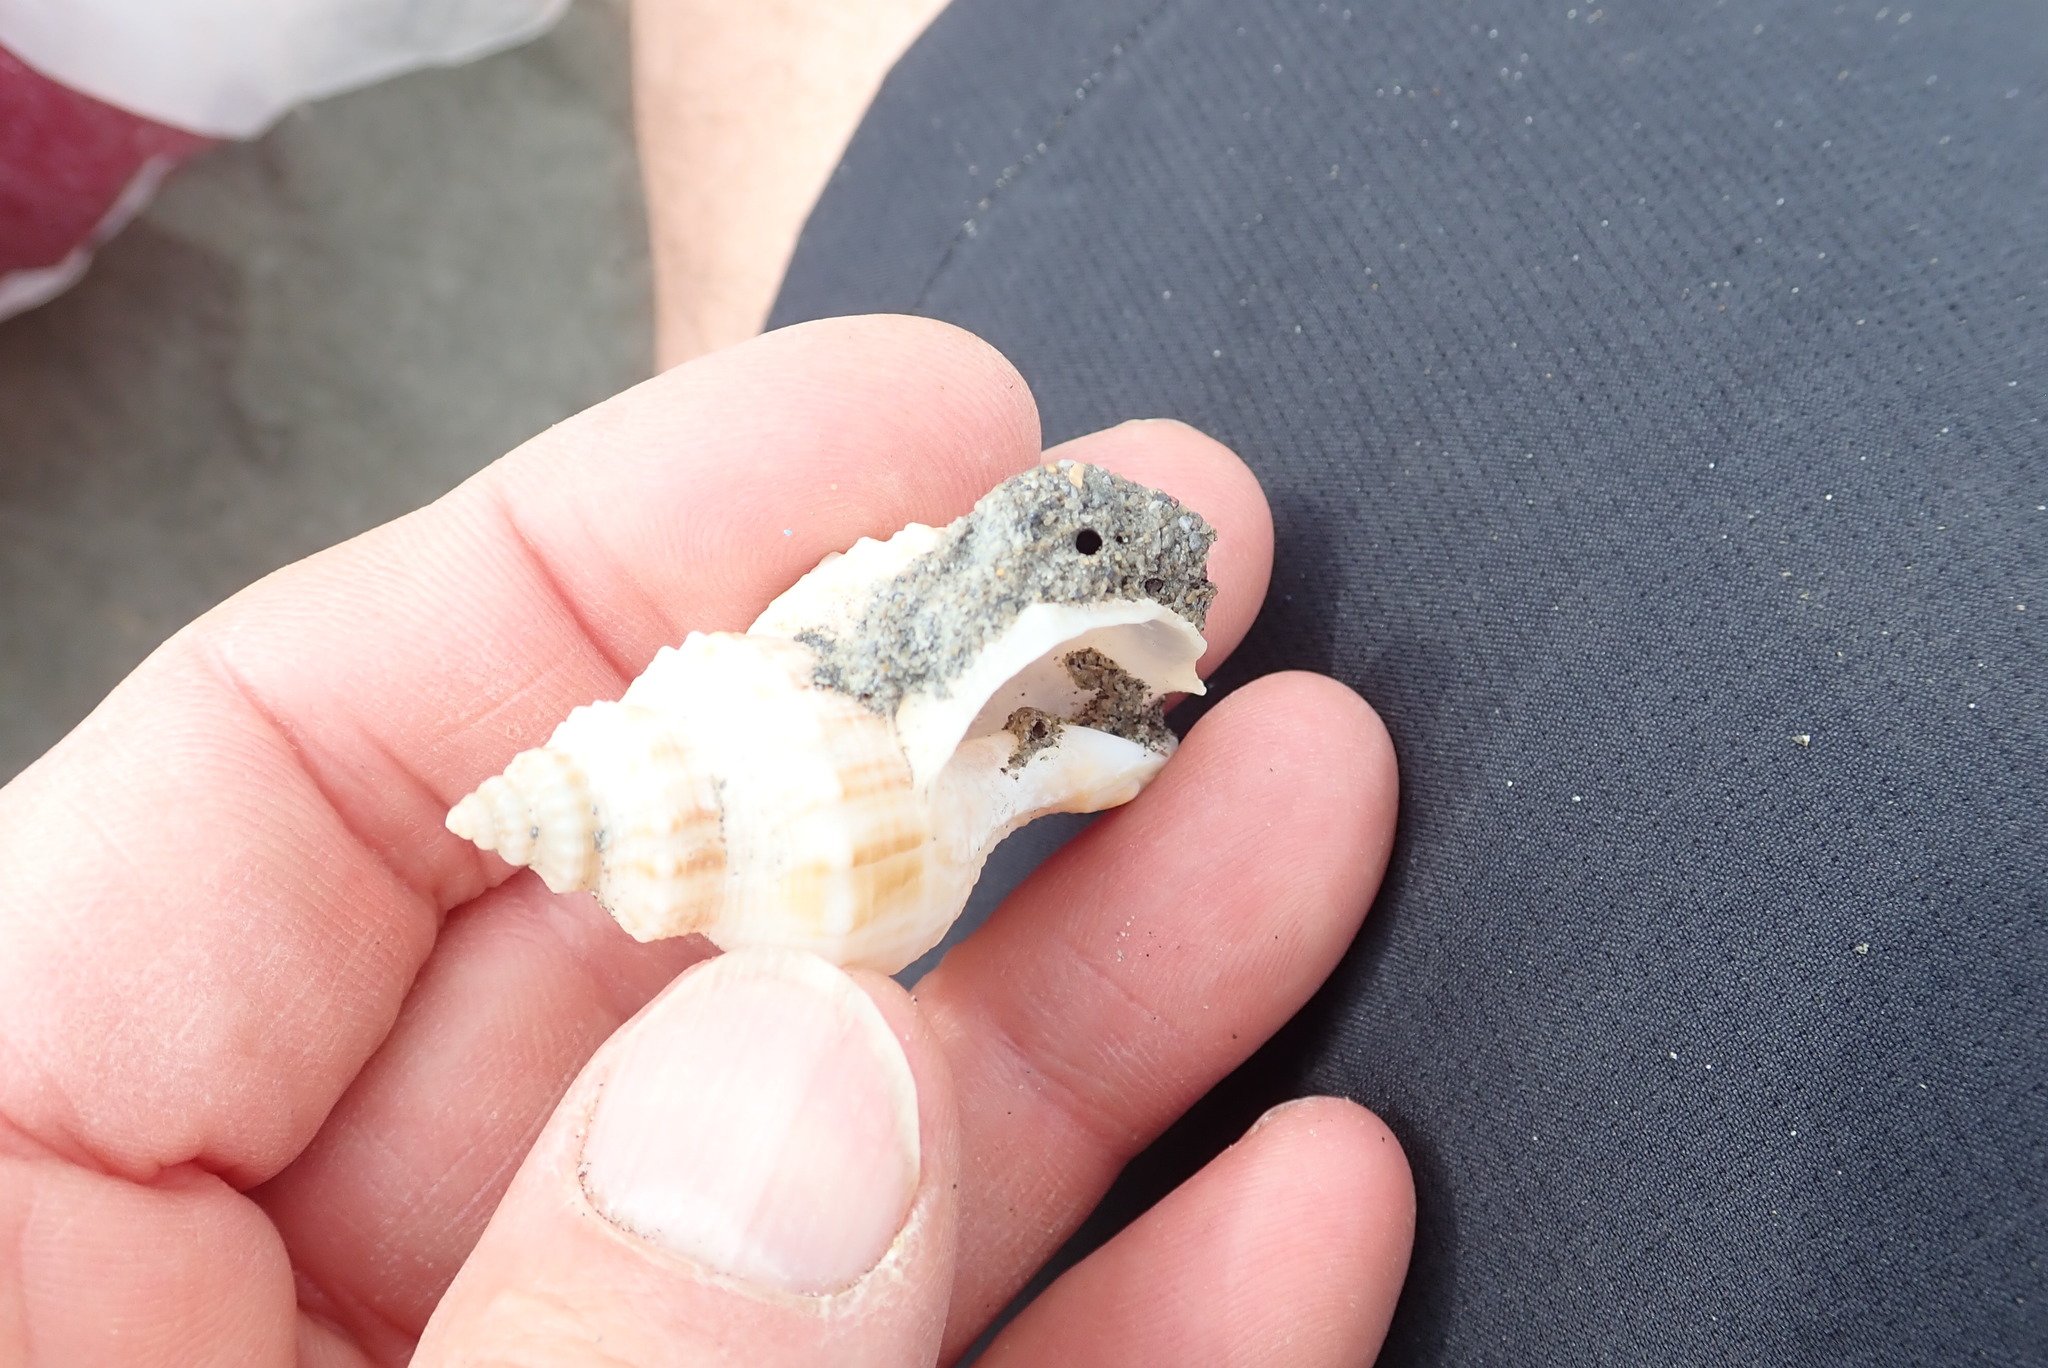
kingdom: Animalia
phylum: Mollusca
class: Gastropoda
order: Neogastropoda
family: Prosiphonidae
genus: Austrofusus
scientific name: Austrofusus glans
